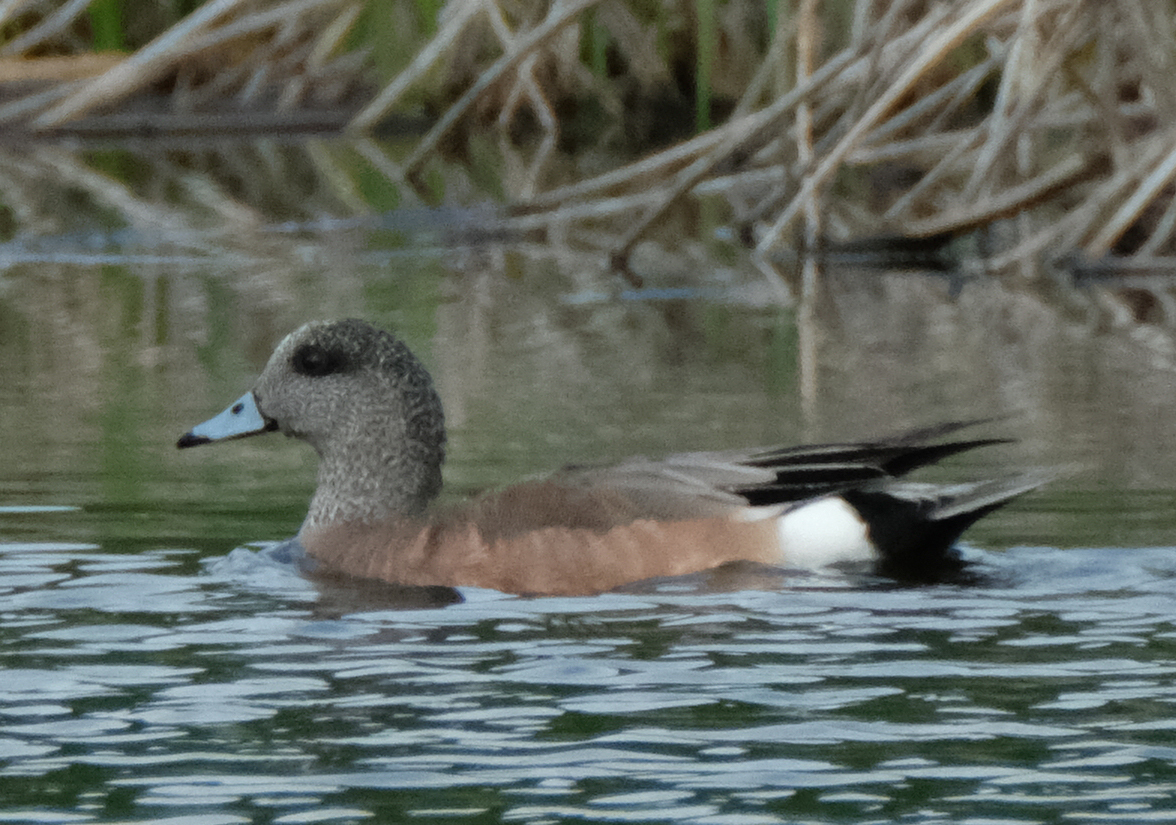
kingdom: Animalia
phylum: Chordata
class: Aves
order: Anseriformes
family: Anatidae
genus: Mareca
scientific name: Mareca americana
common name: American wigeon
